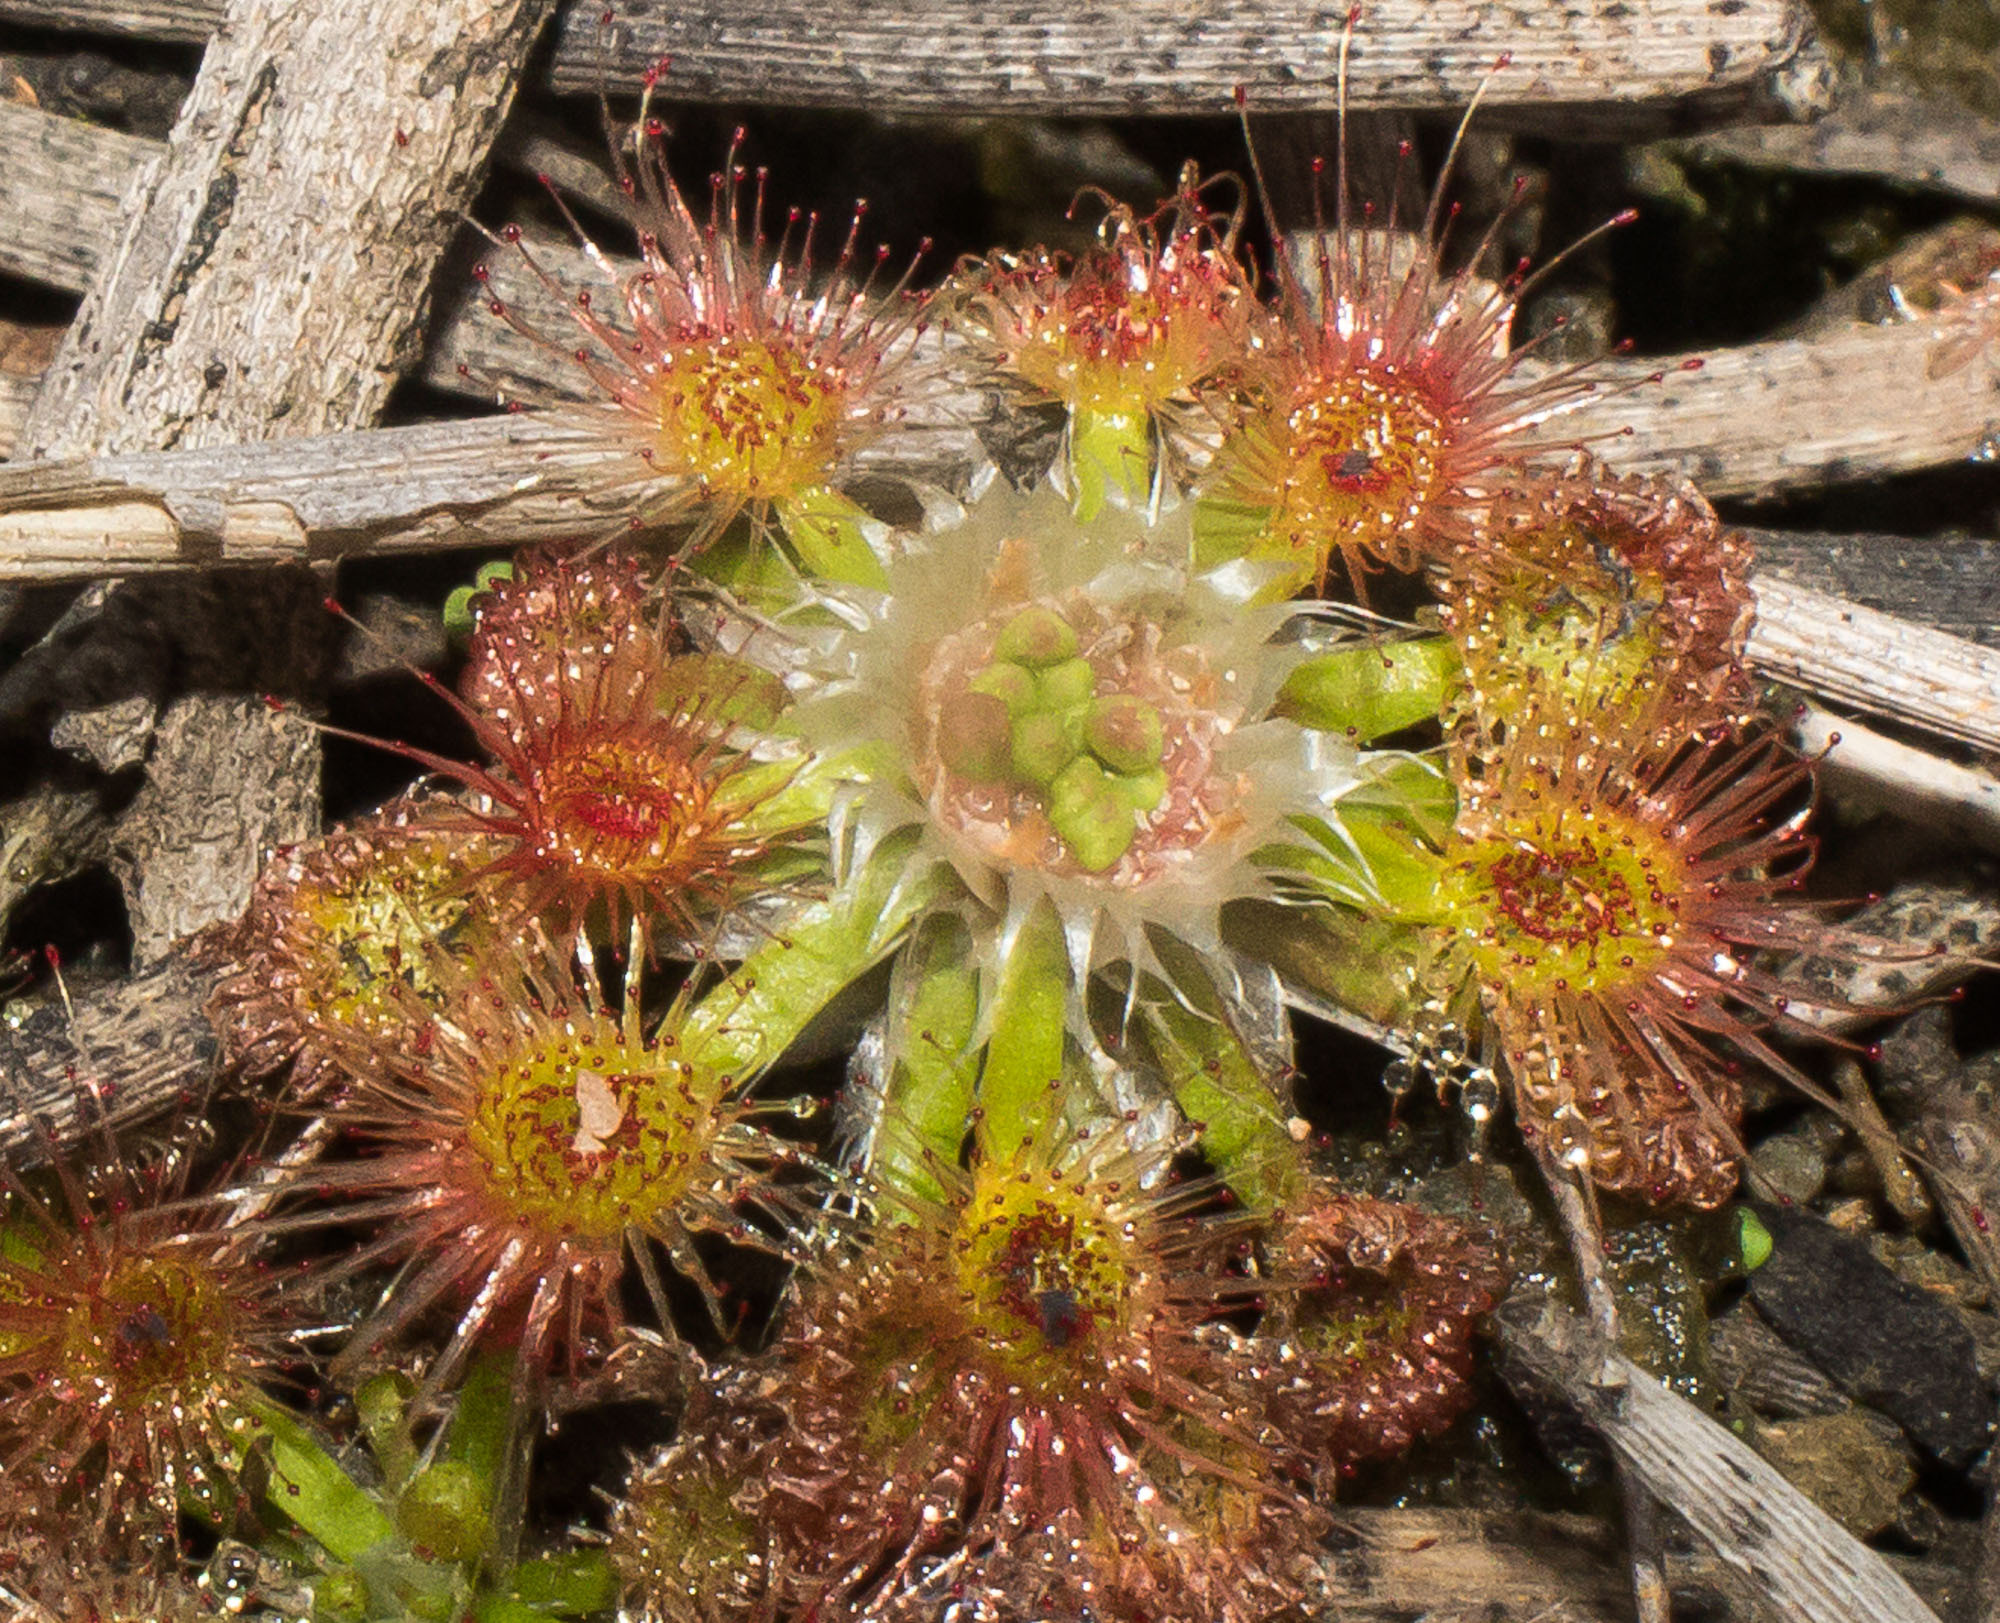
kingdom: Plantae
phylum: Tracheophyta
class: Magnoliopsida
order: Caryophyllales
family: Droseraceae
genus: Drosera
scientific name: Drosera androsacea
